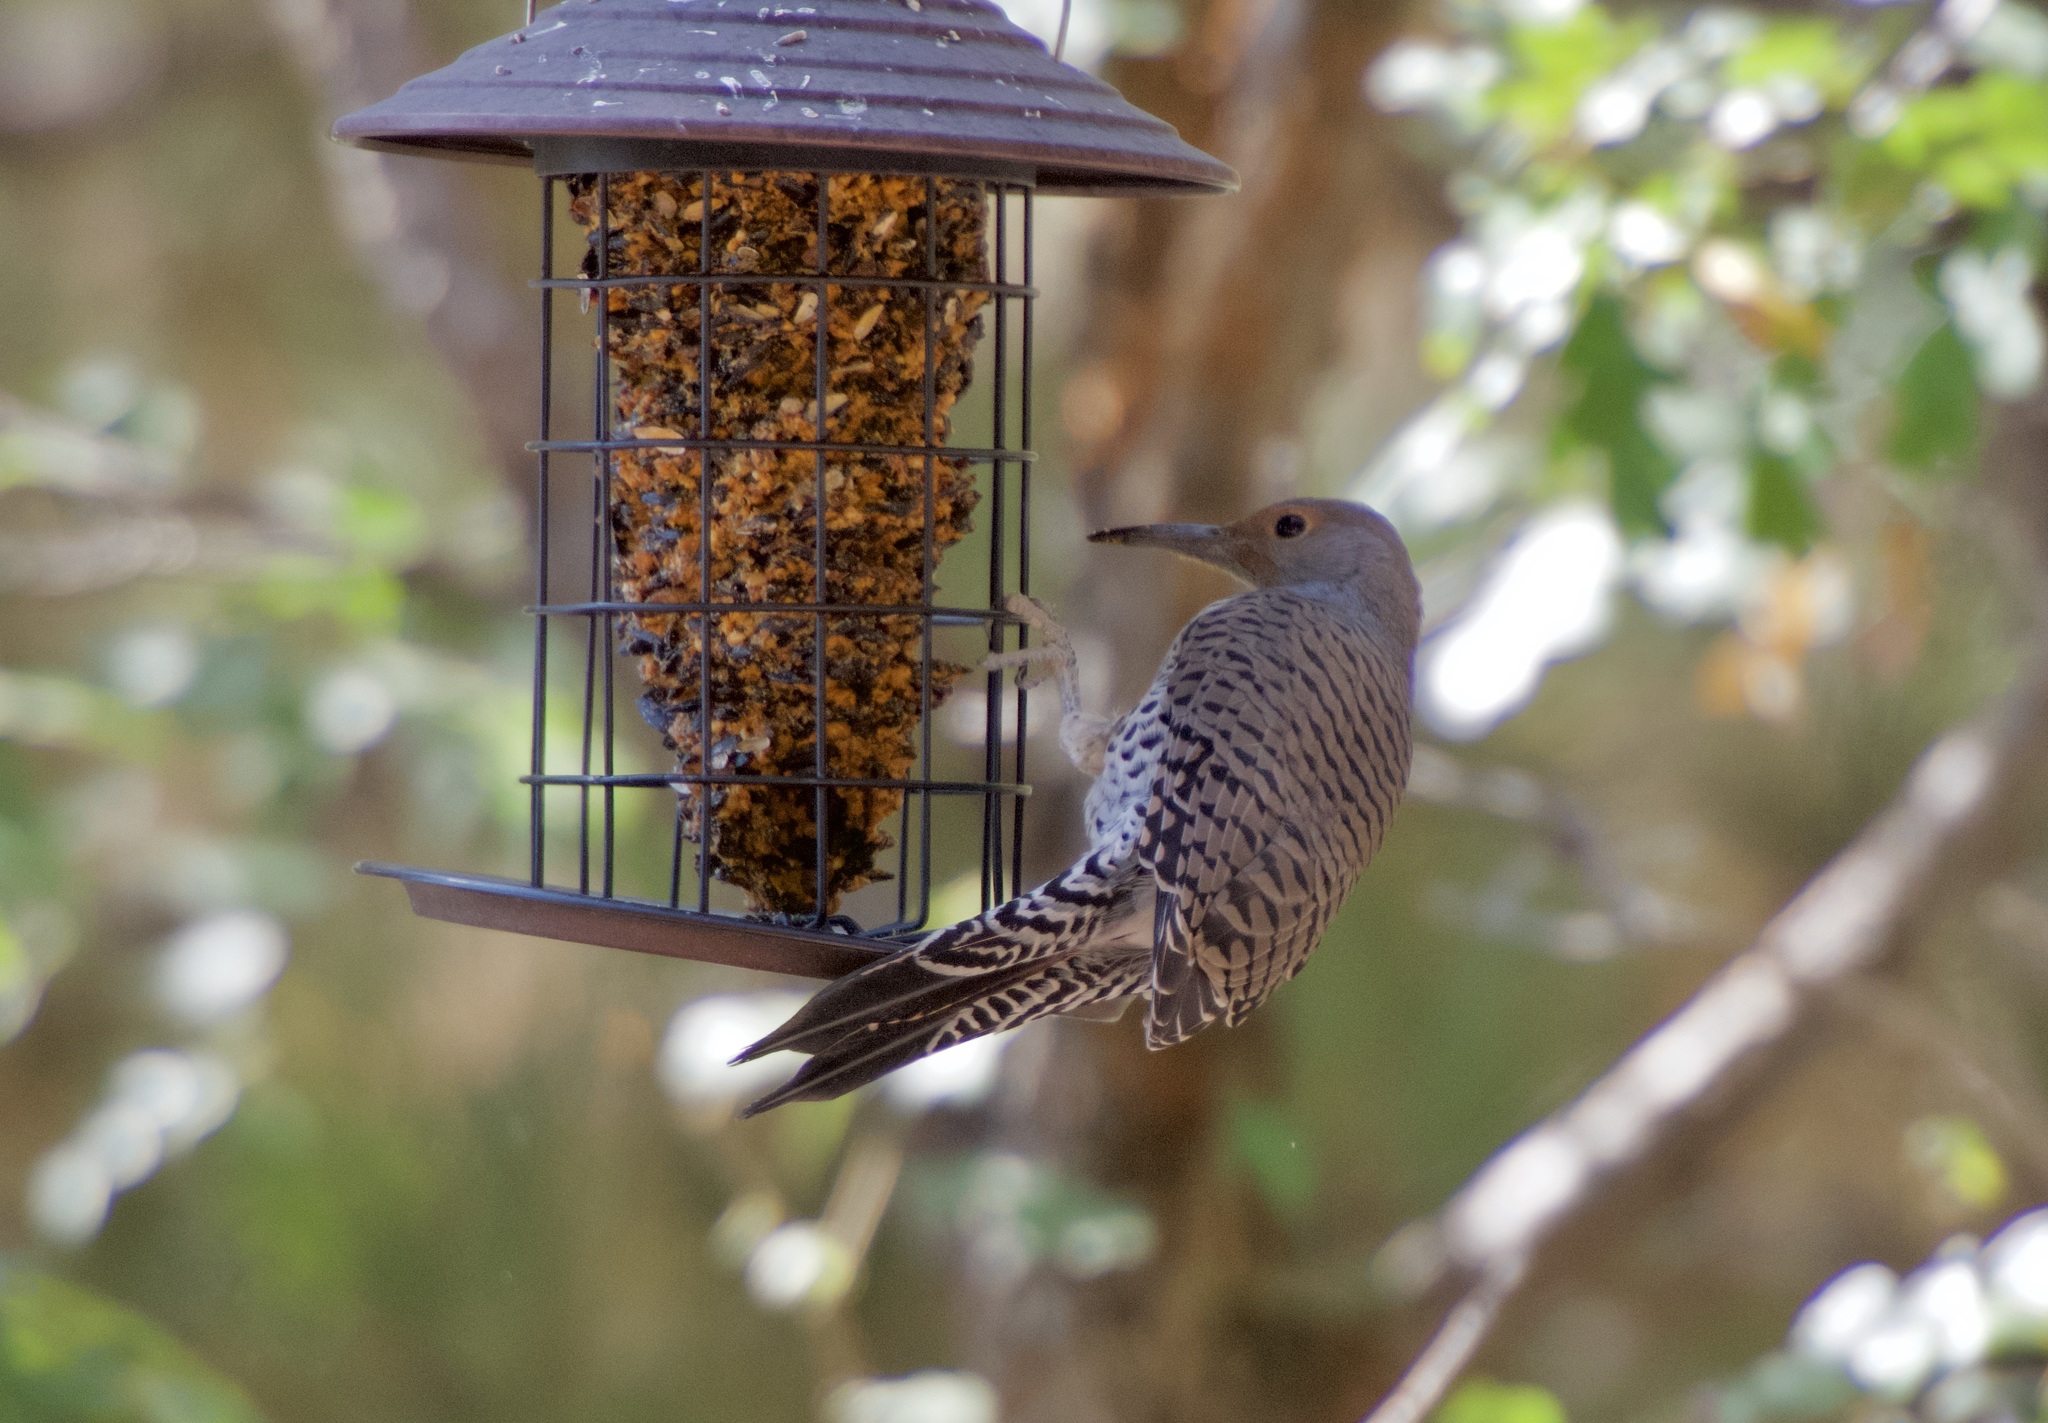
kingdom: Animalia
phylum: Chordata
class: Aves
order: Piciformes
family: Picidae
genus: Colaptes
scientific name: Colaptes auratus
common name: Northern flicker
